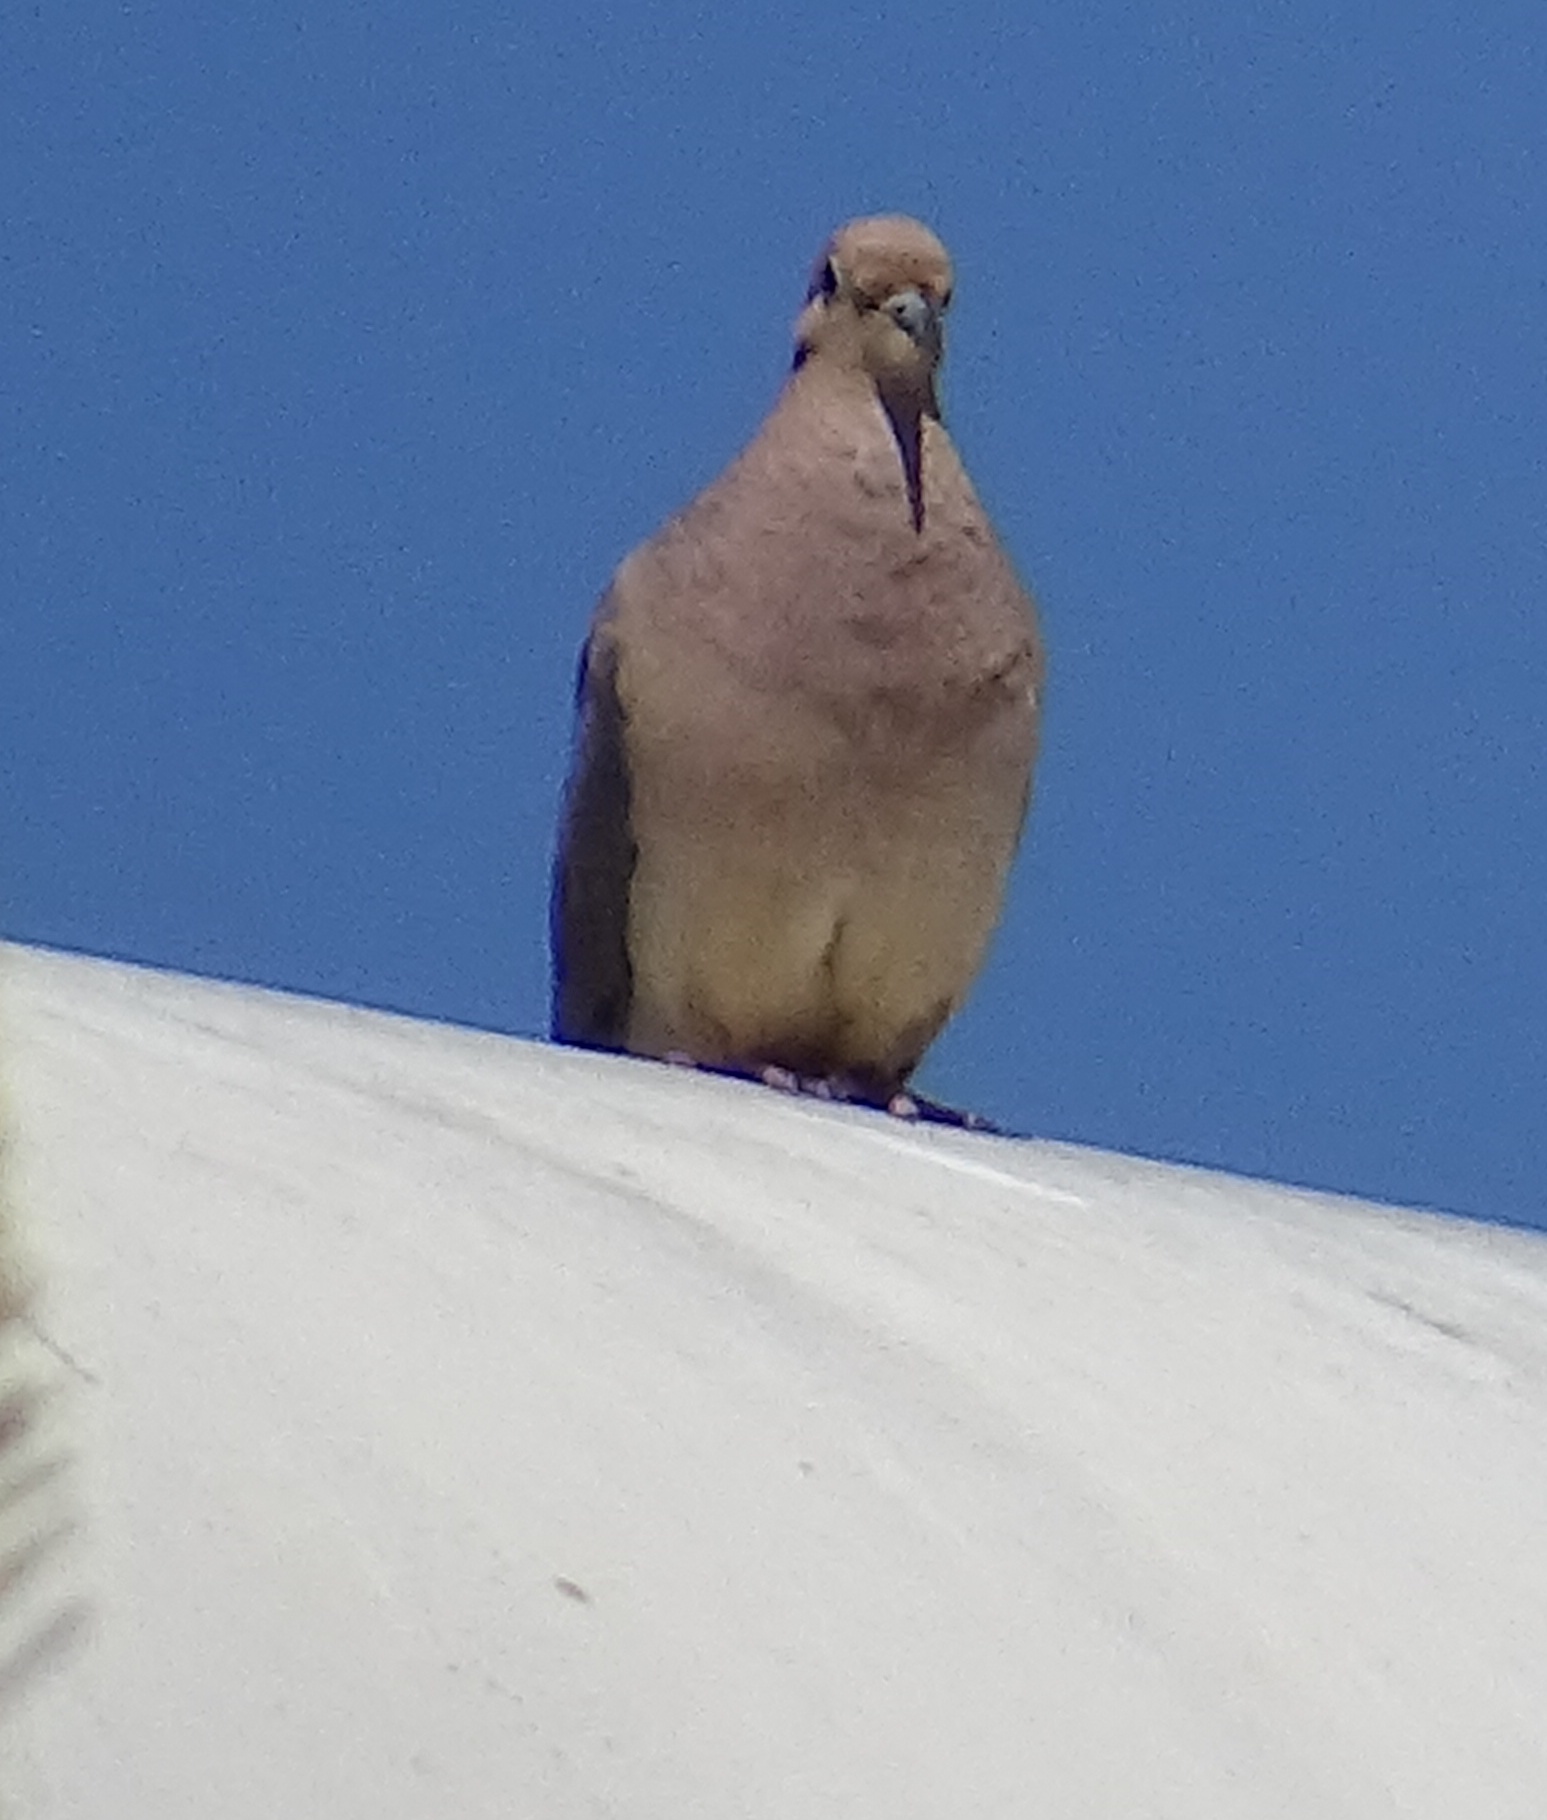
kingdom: Animalia
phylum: Chordata
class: Aves
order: Columbiformes
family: Columbidae
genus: Zenaida
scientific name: Zenaida macroura
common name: Mourning dove
